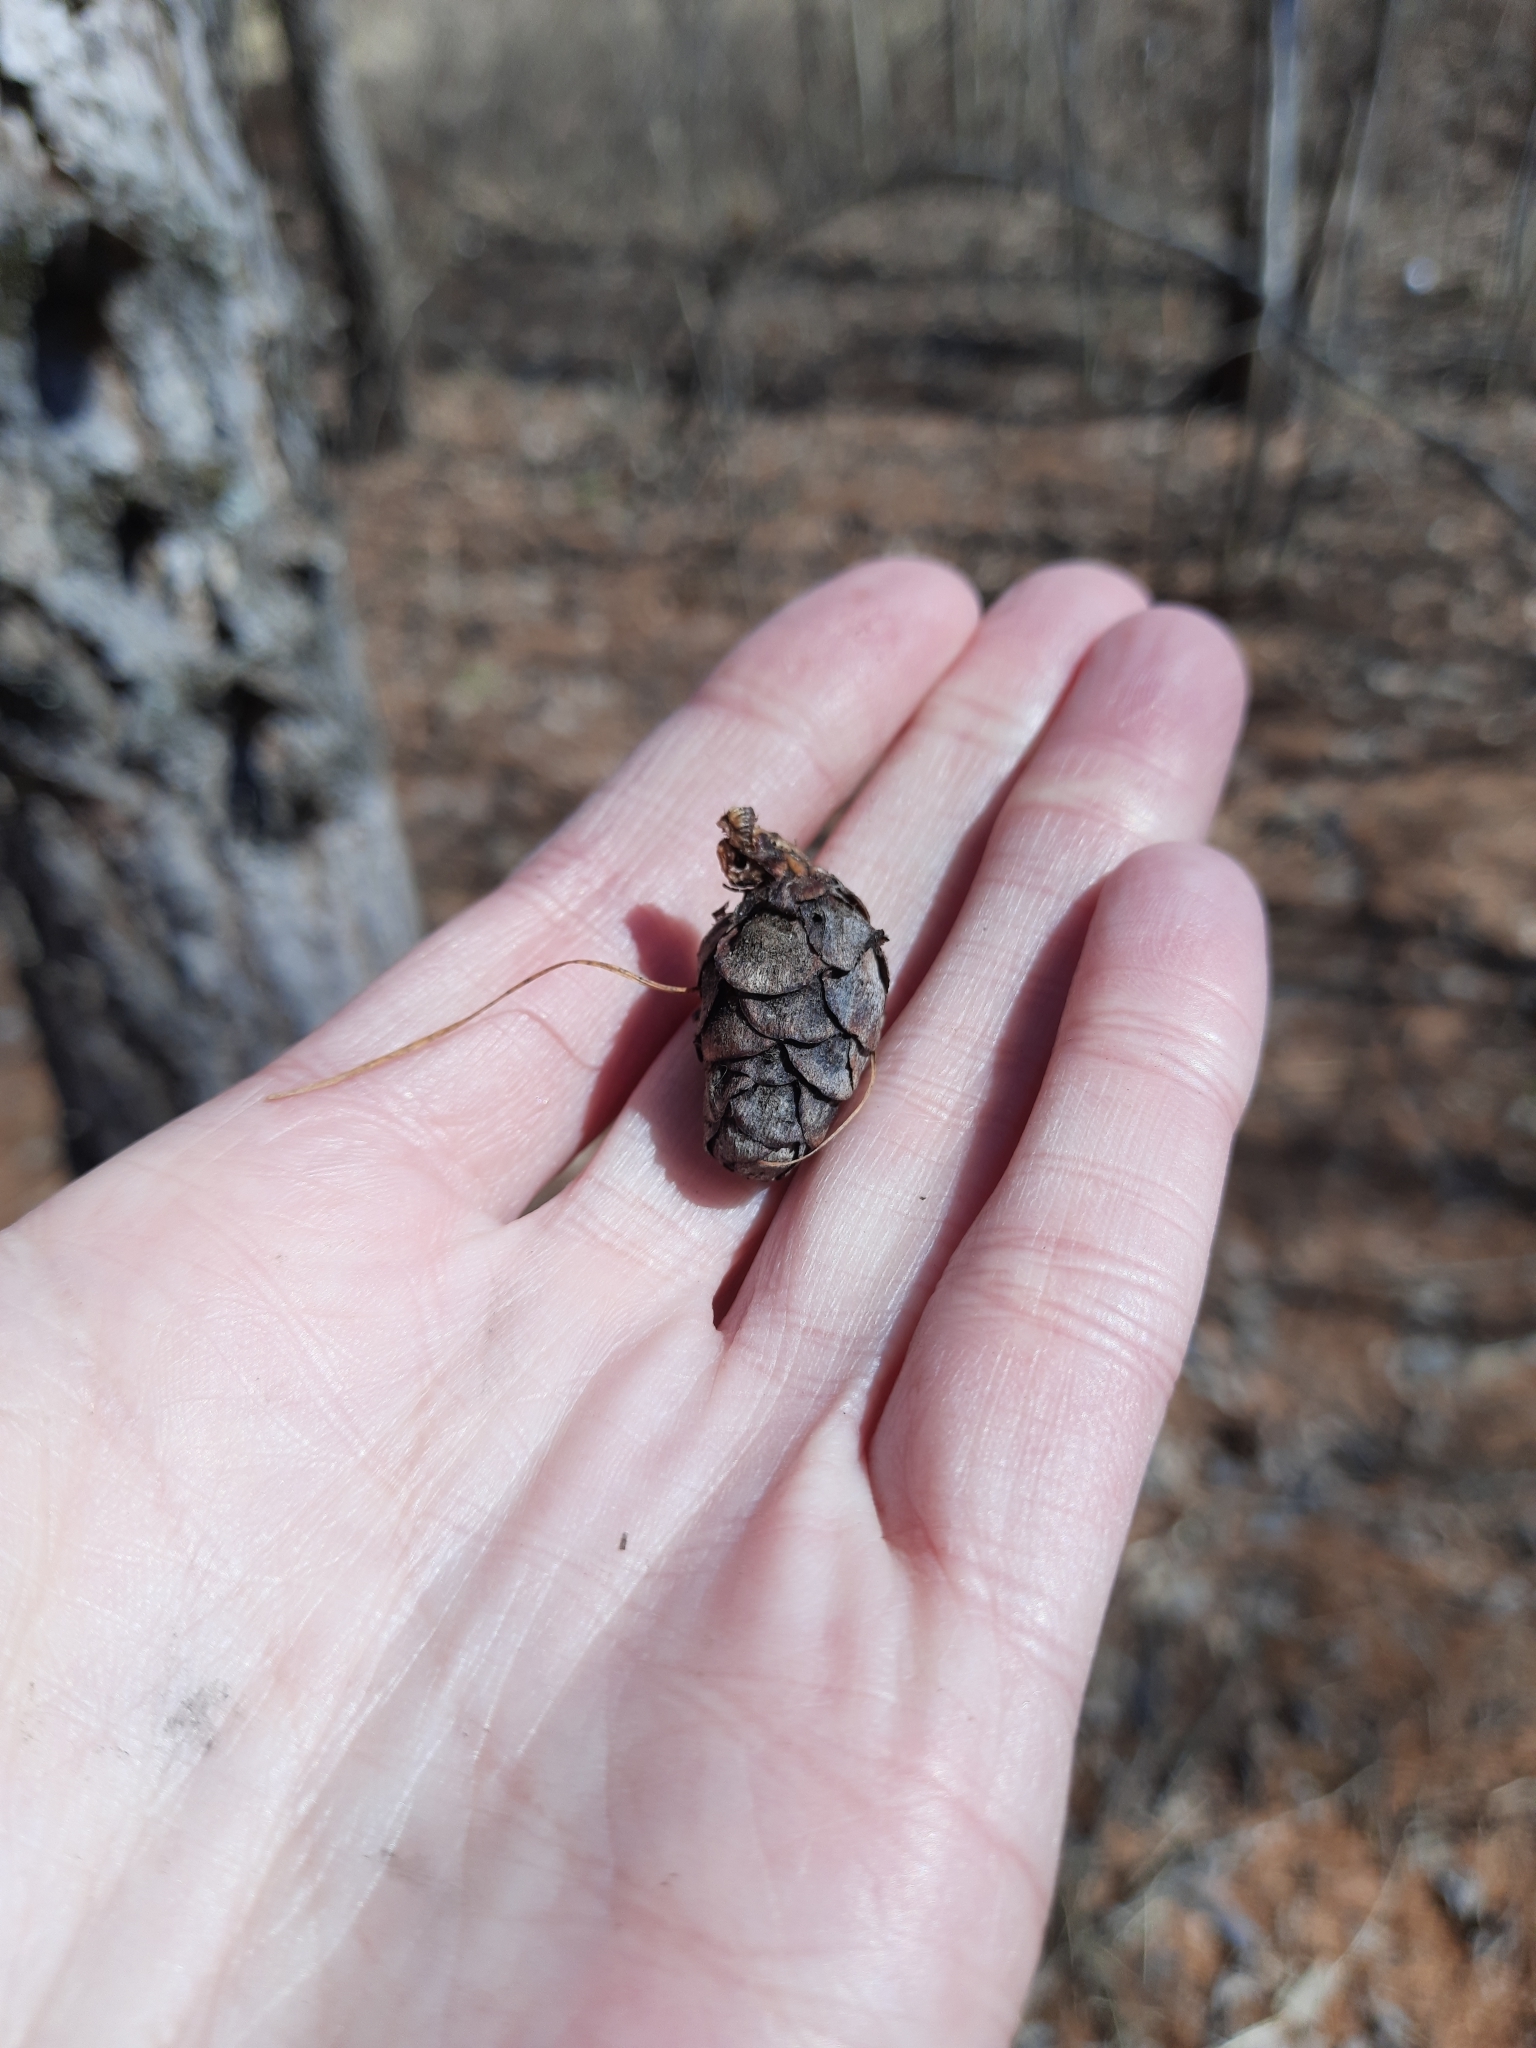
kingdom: Plantae
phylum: Tracheophyta
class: Pinopsida
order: Pinales
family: Pinaceae
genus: Larix
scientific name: Larix sibirica
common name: Siberian larch
